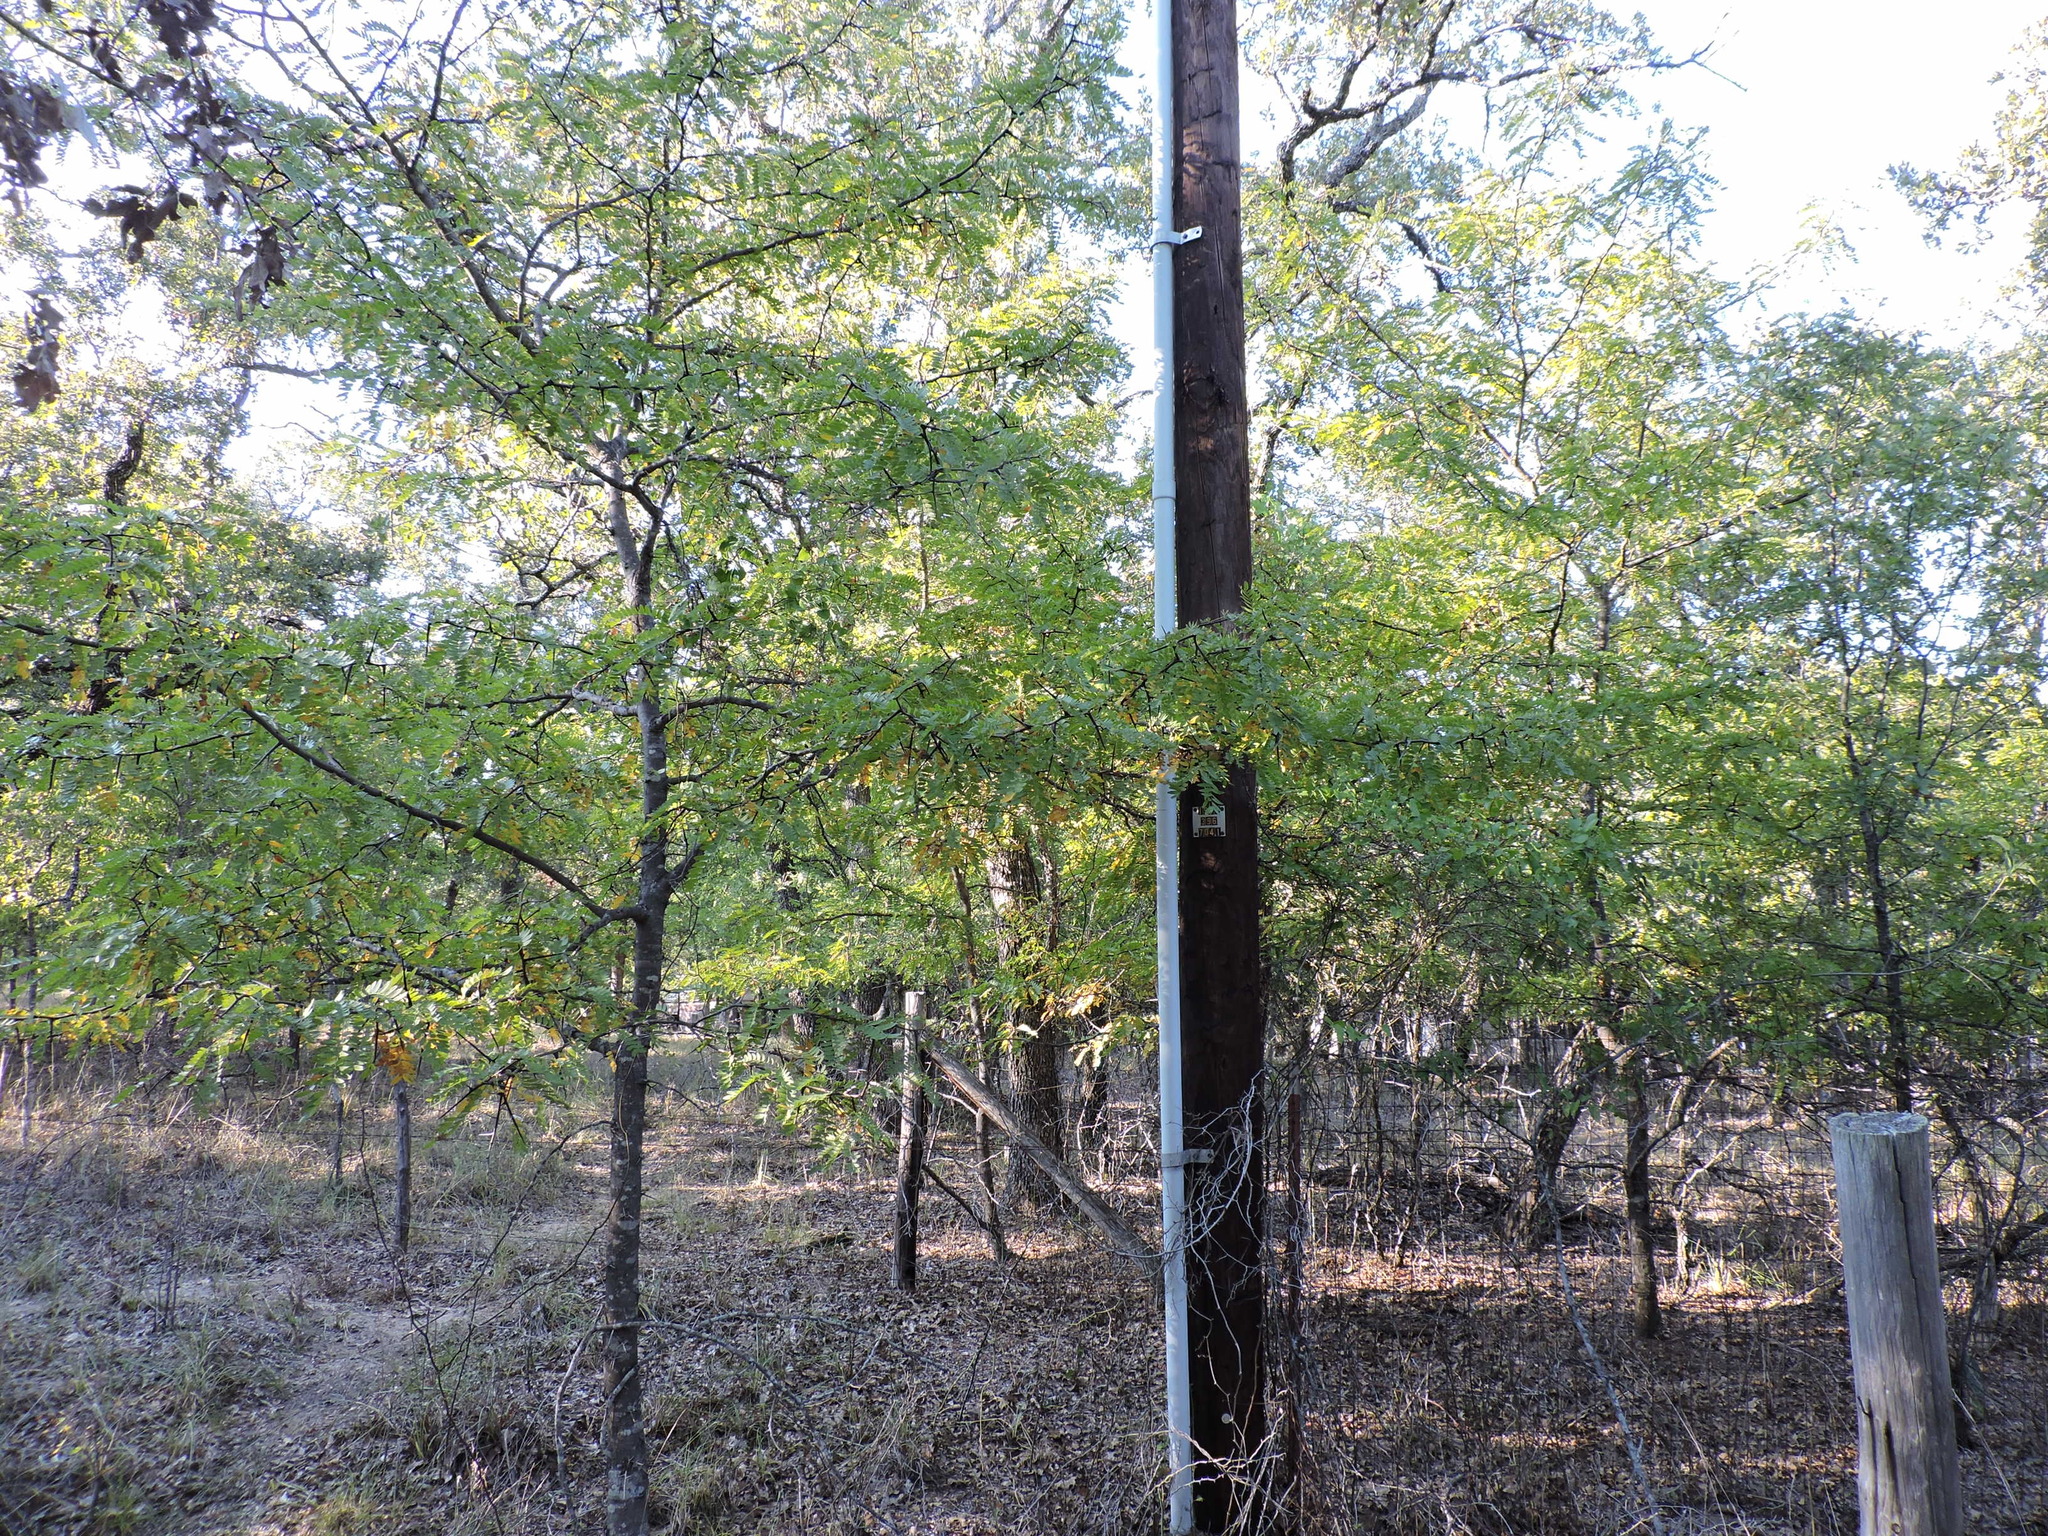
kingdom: Plantae
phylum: Tracheophyta
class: Magnoliopsida
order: Fabales
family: Fabaceae
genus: Gleditsia
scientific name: Gleditsia triacanthos
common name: Common honeylocust
